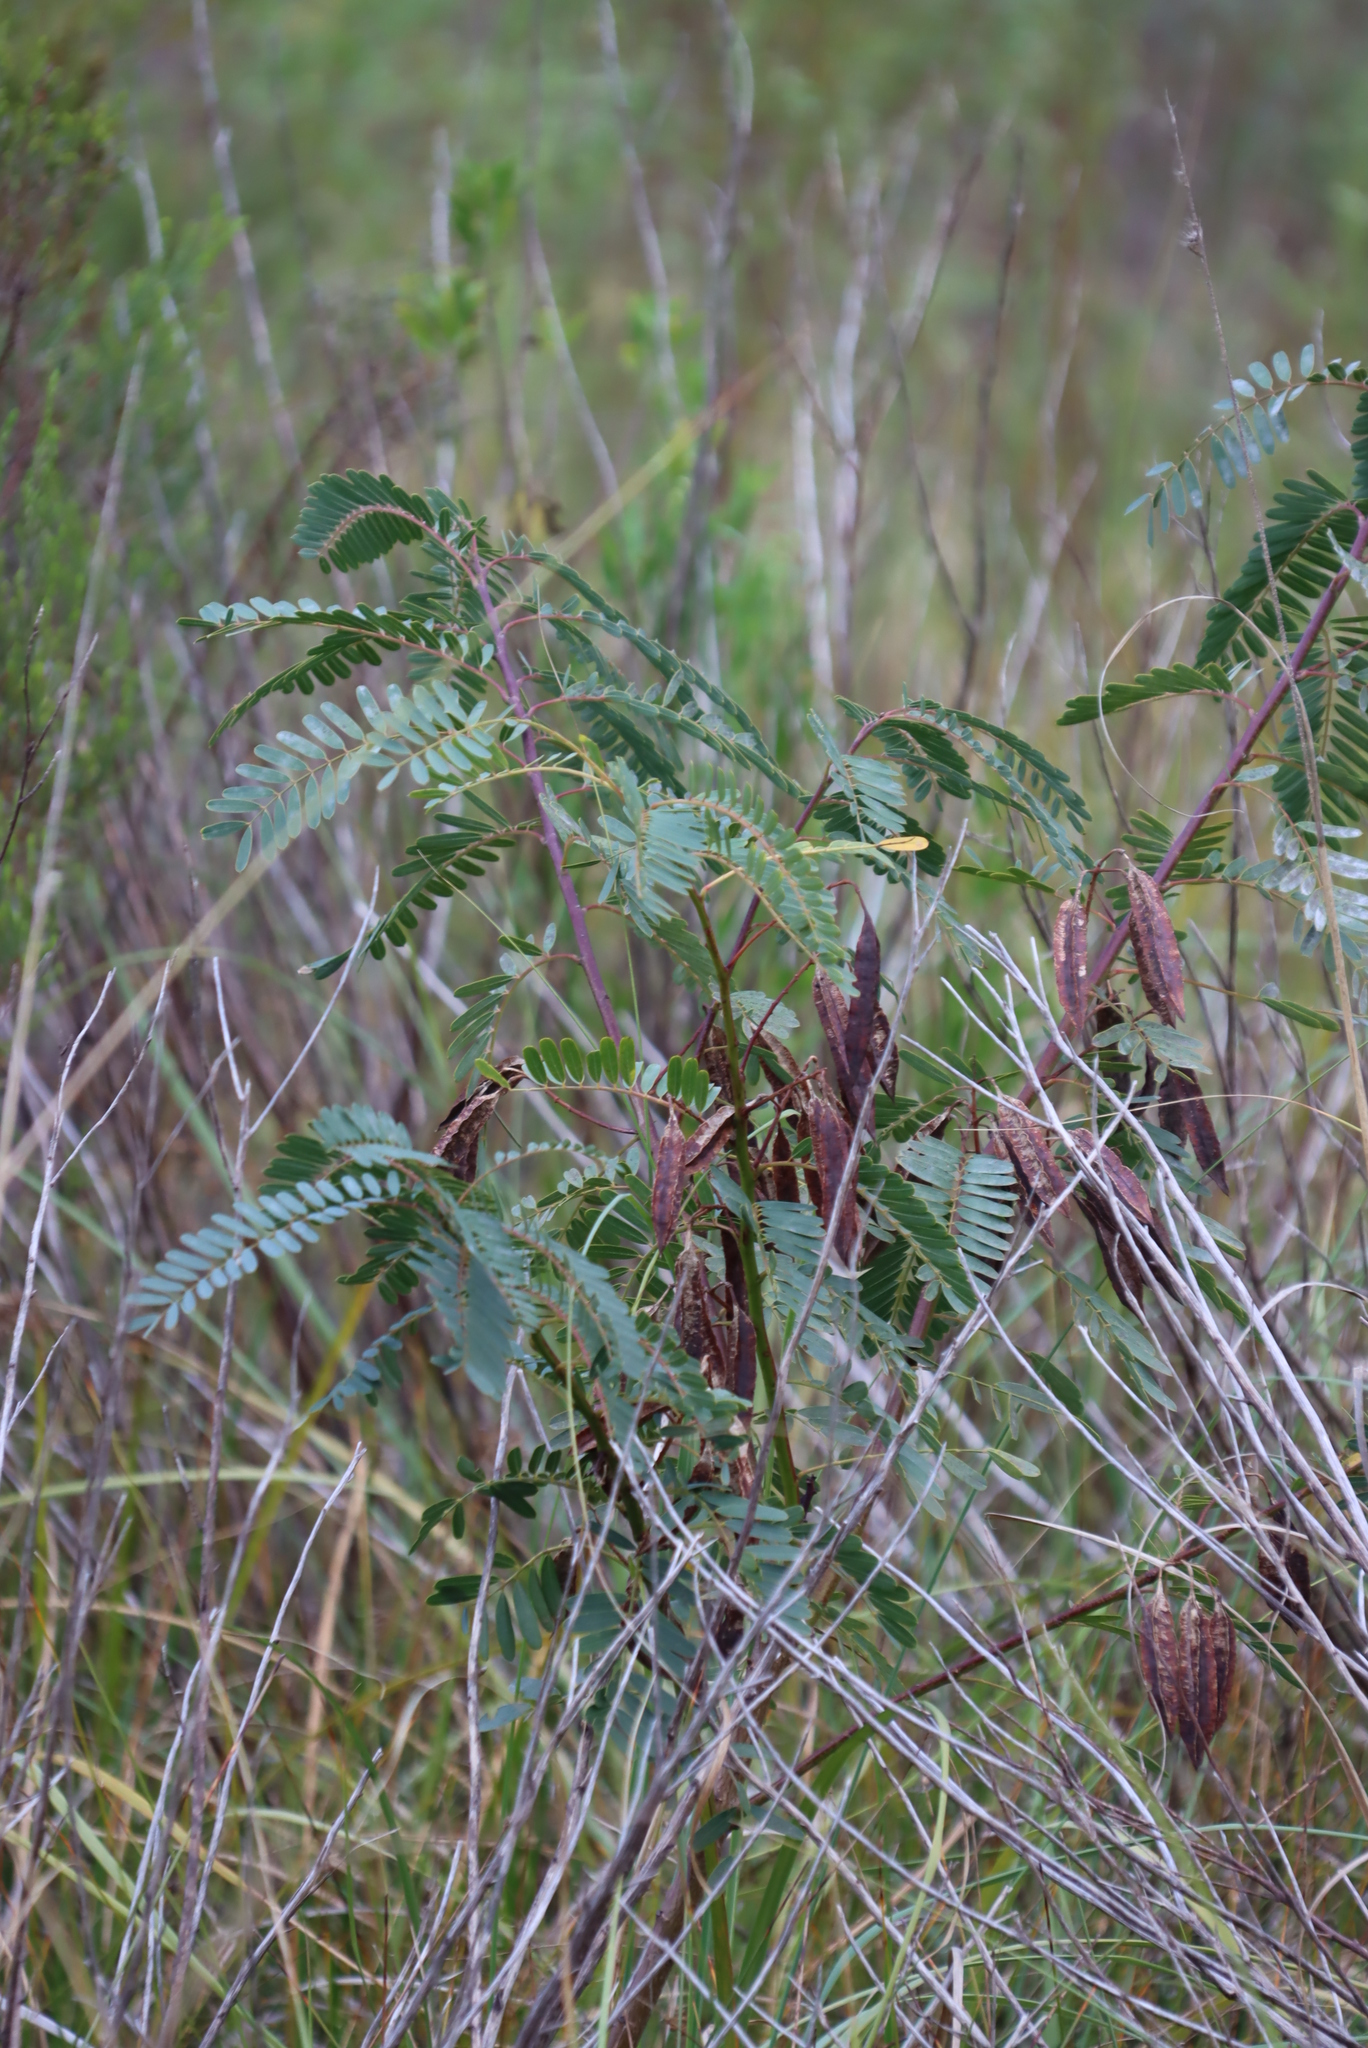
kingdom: Plantae
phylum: Tracheophyta
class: Magnoliopsida
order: Fabales
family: Fabaceae
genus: Sesbania
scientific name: Sesbania punicea
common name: Rattlebox
